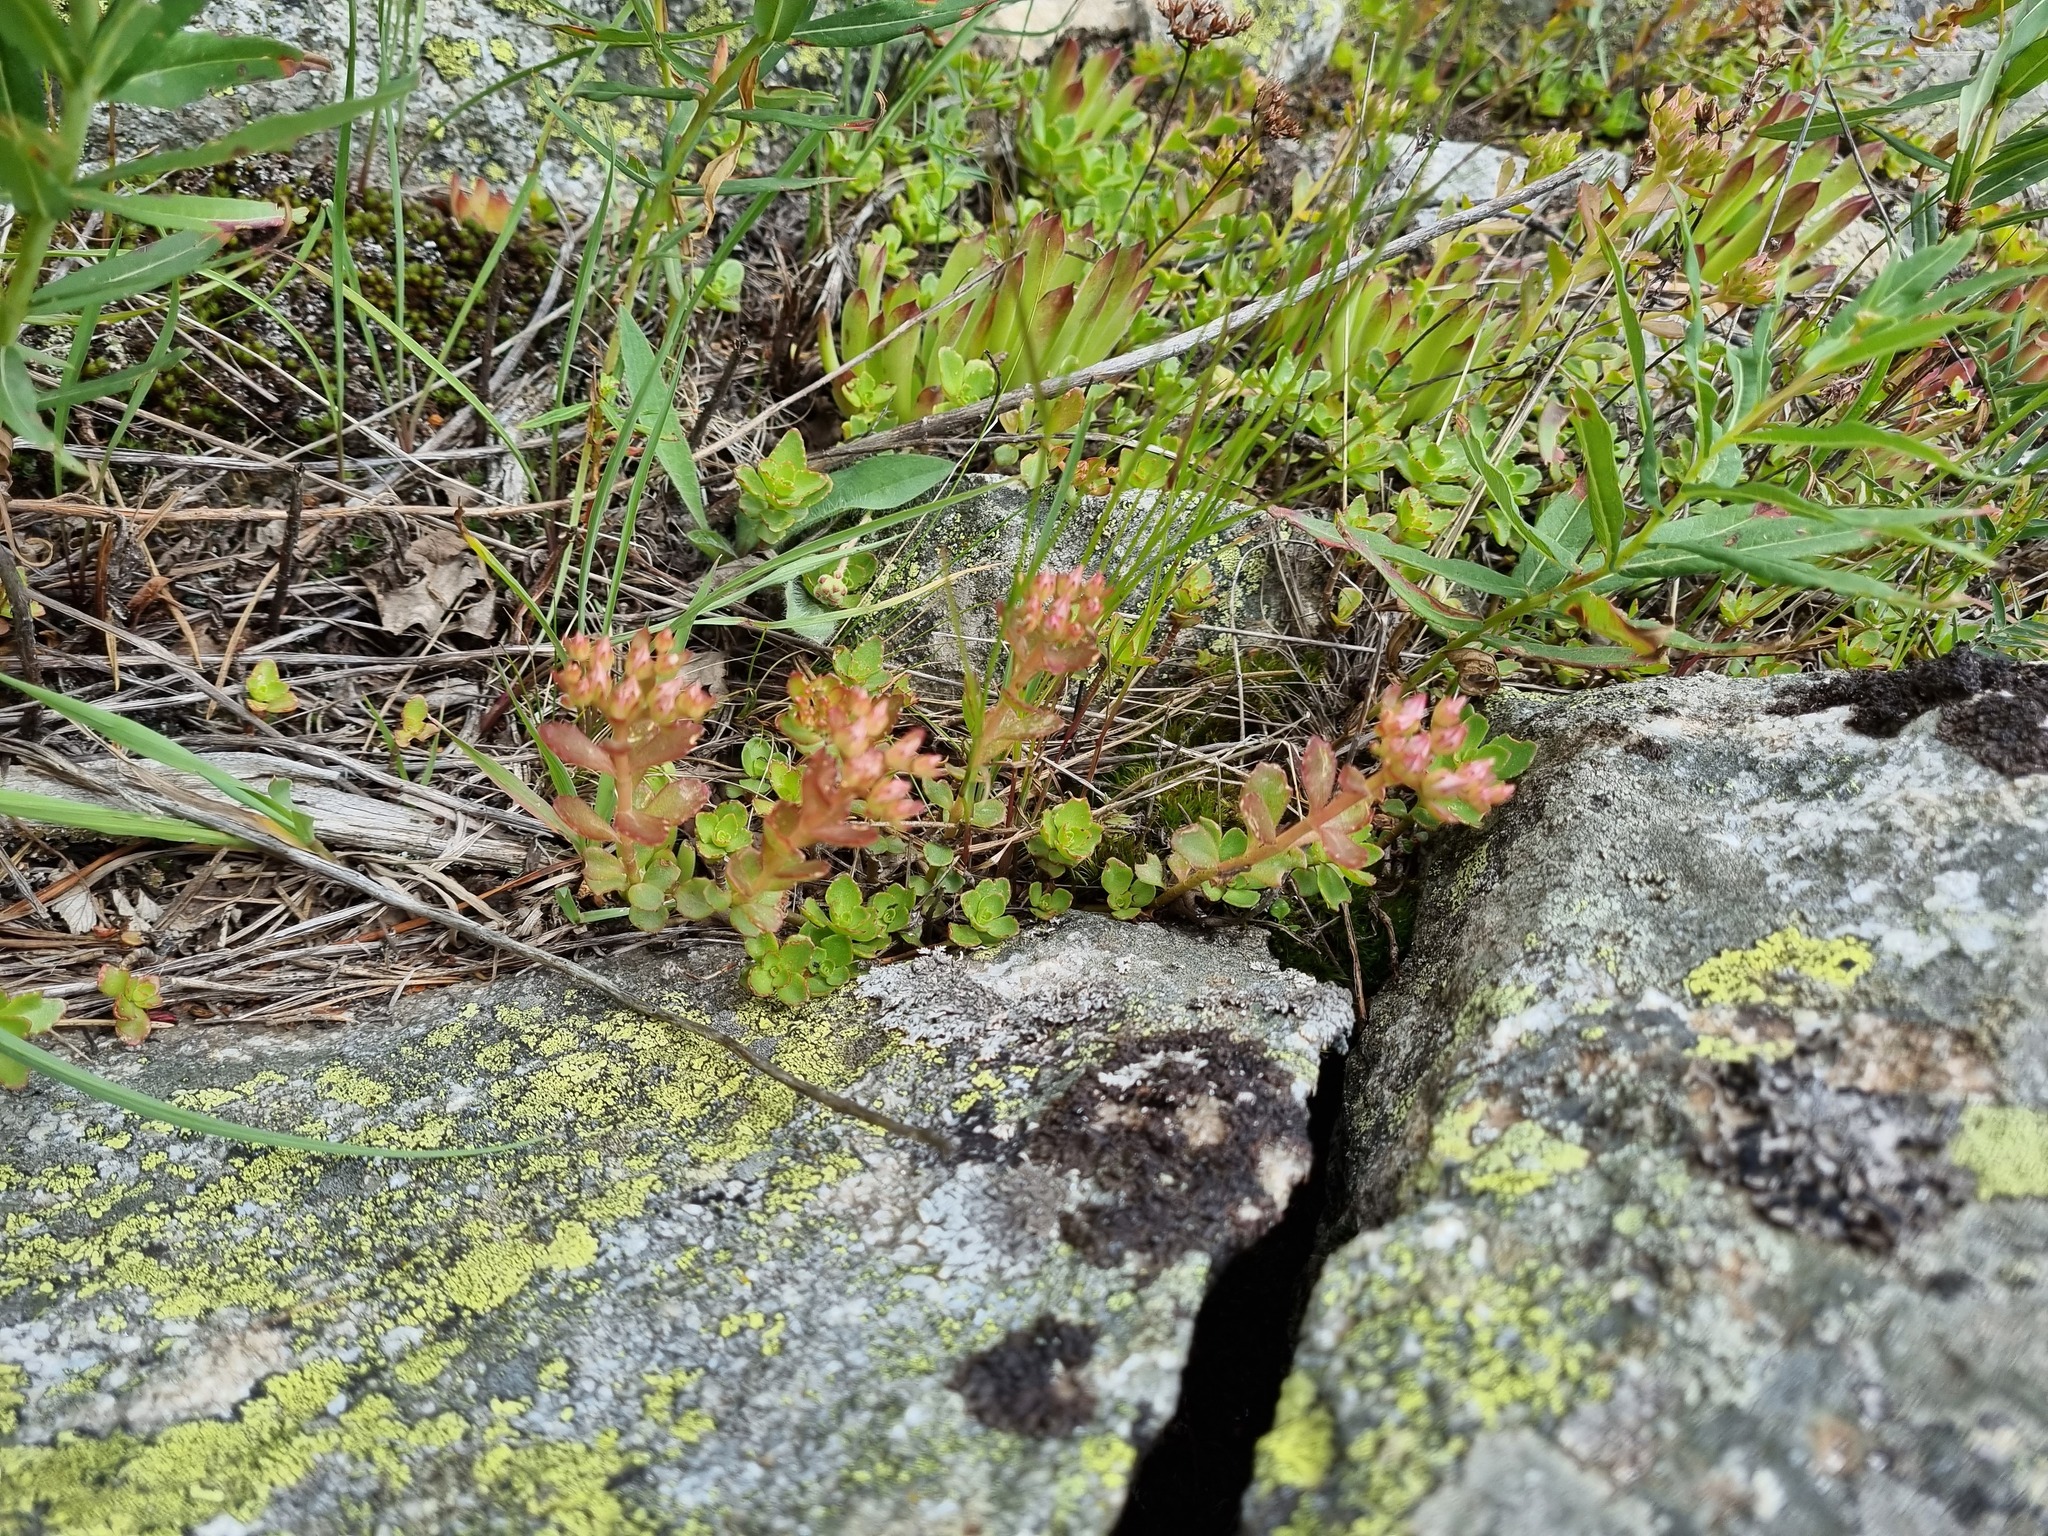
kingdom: Plantae
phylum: Tracheophyta
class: Magnoliopsida
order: Saxifragales
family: Crassulaceae
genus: Phedimus
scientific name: Phedimus spurius
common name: Caucasian stonecrop
